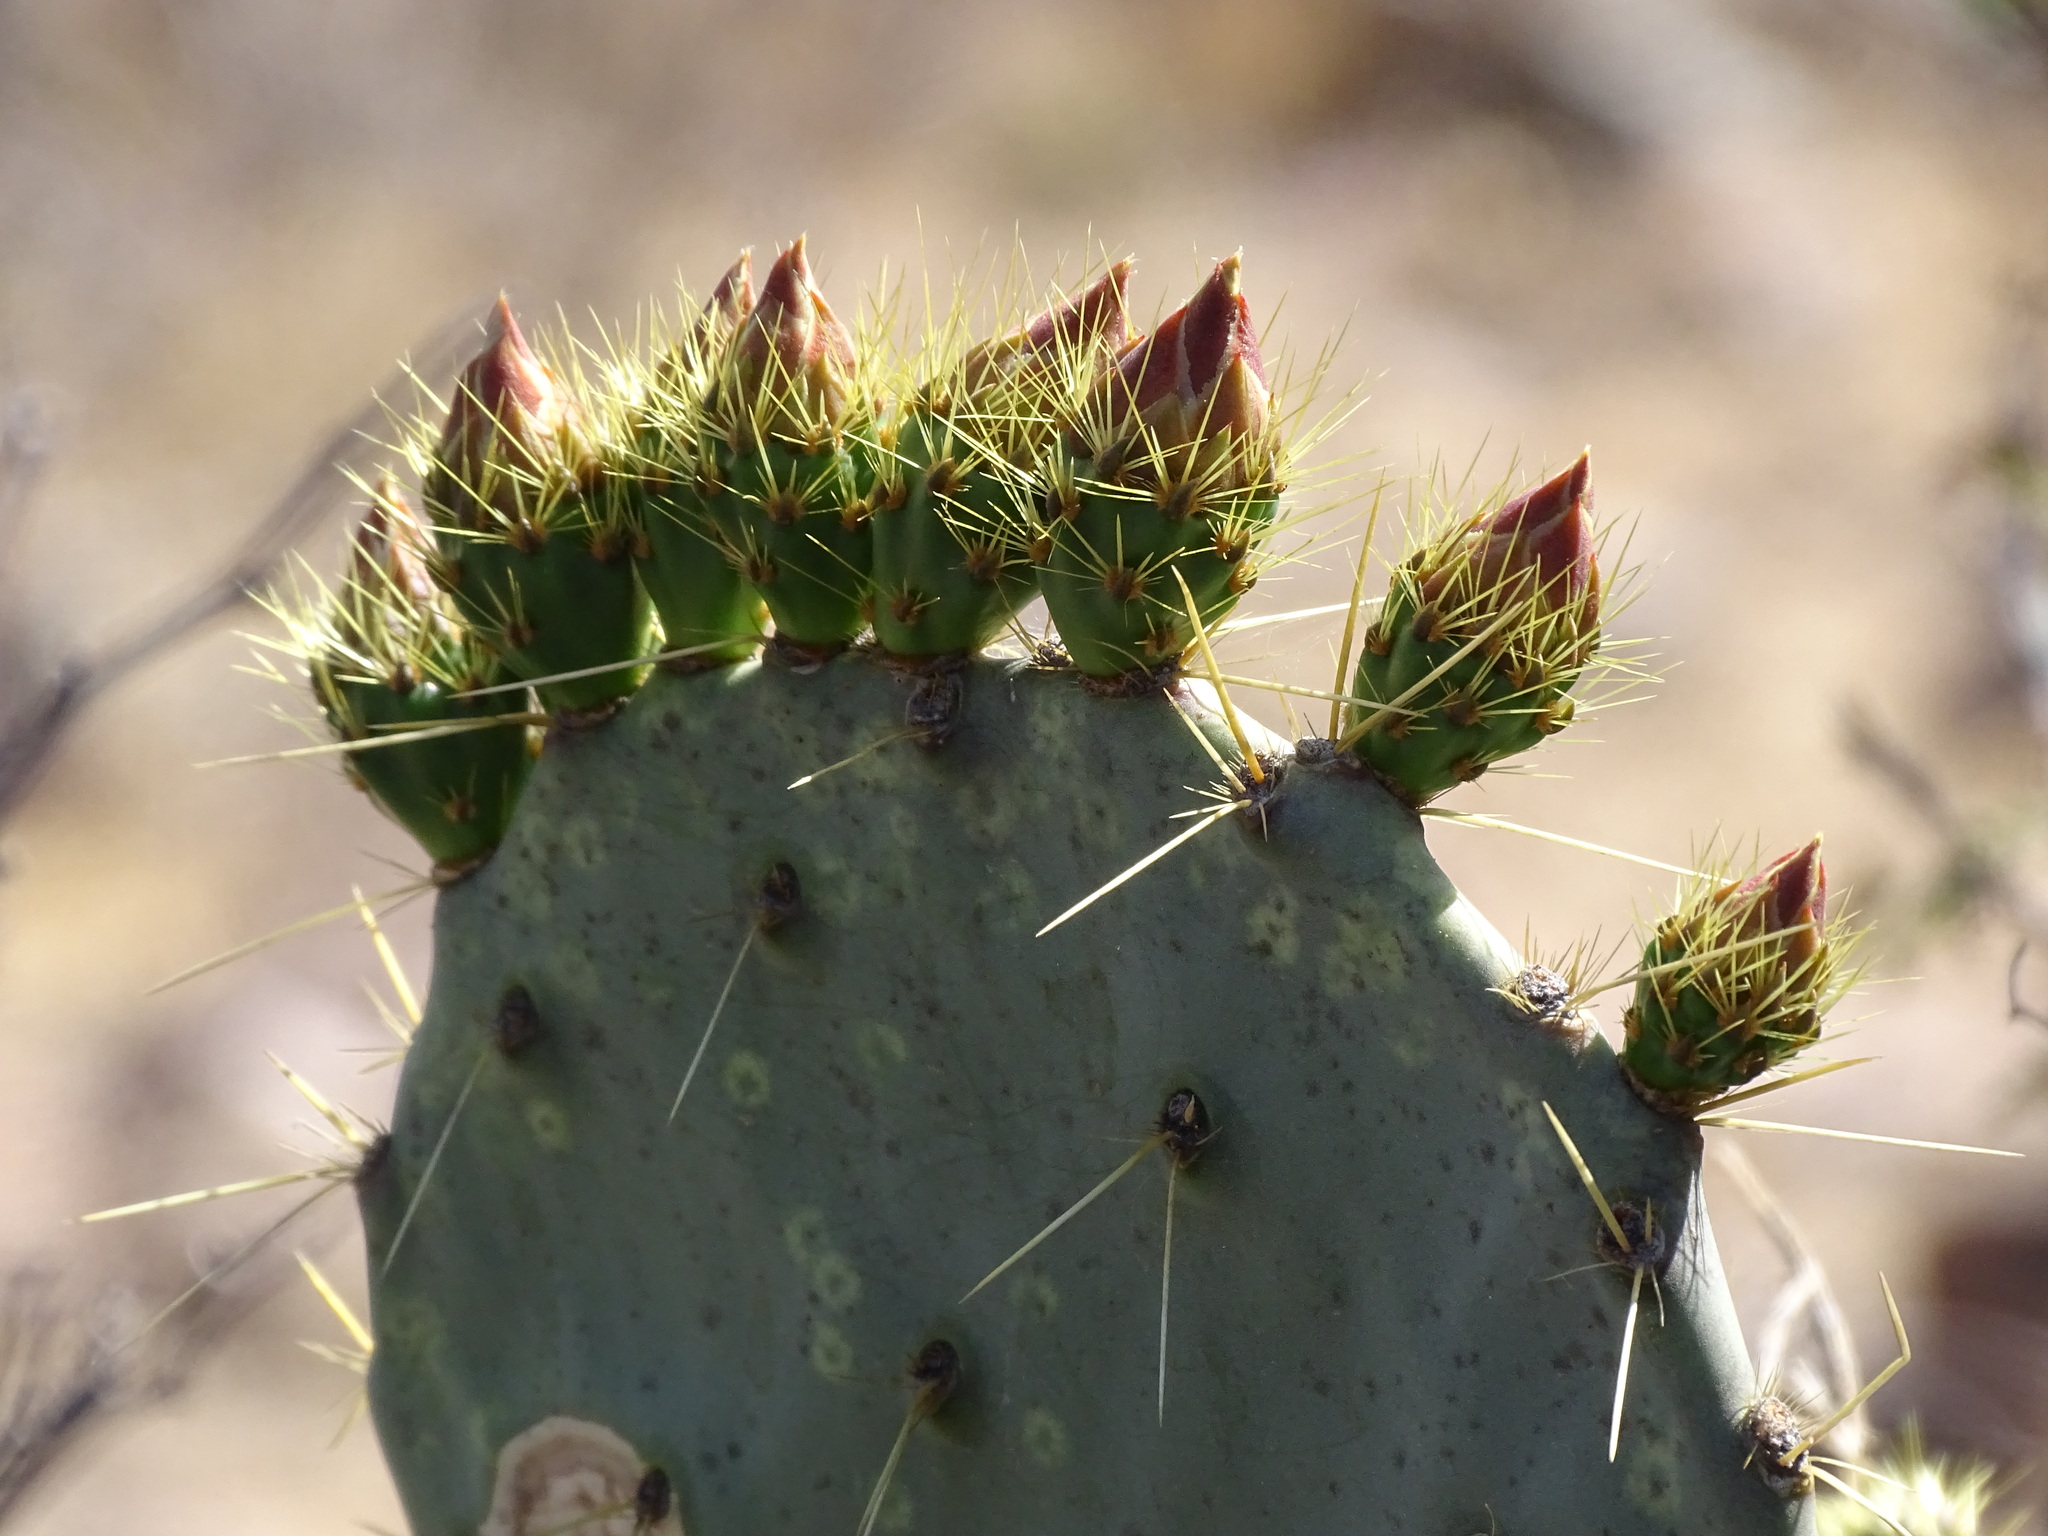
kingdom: Plantae
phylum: Tracheophyta
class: Magnoliopsida
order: Caryophyllales
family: Cactaceae
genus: Opuntia
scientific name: Opuntia robusta
